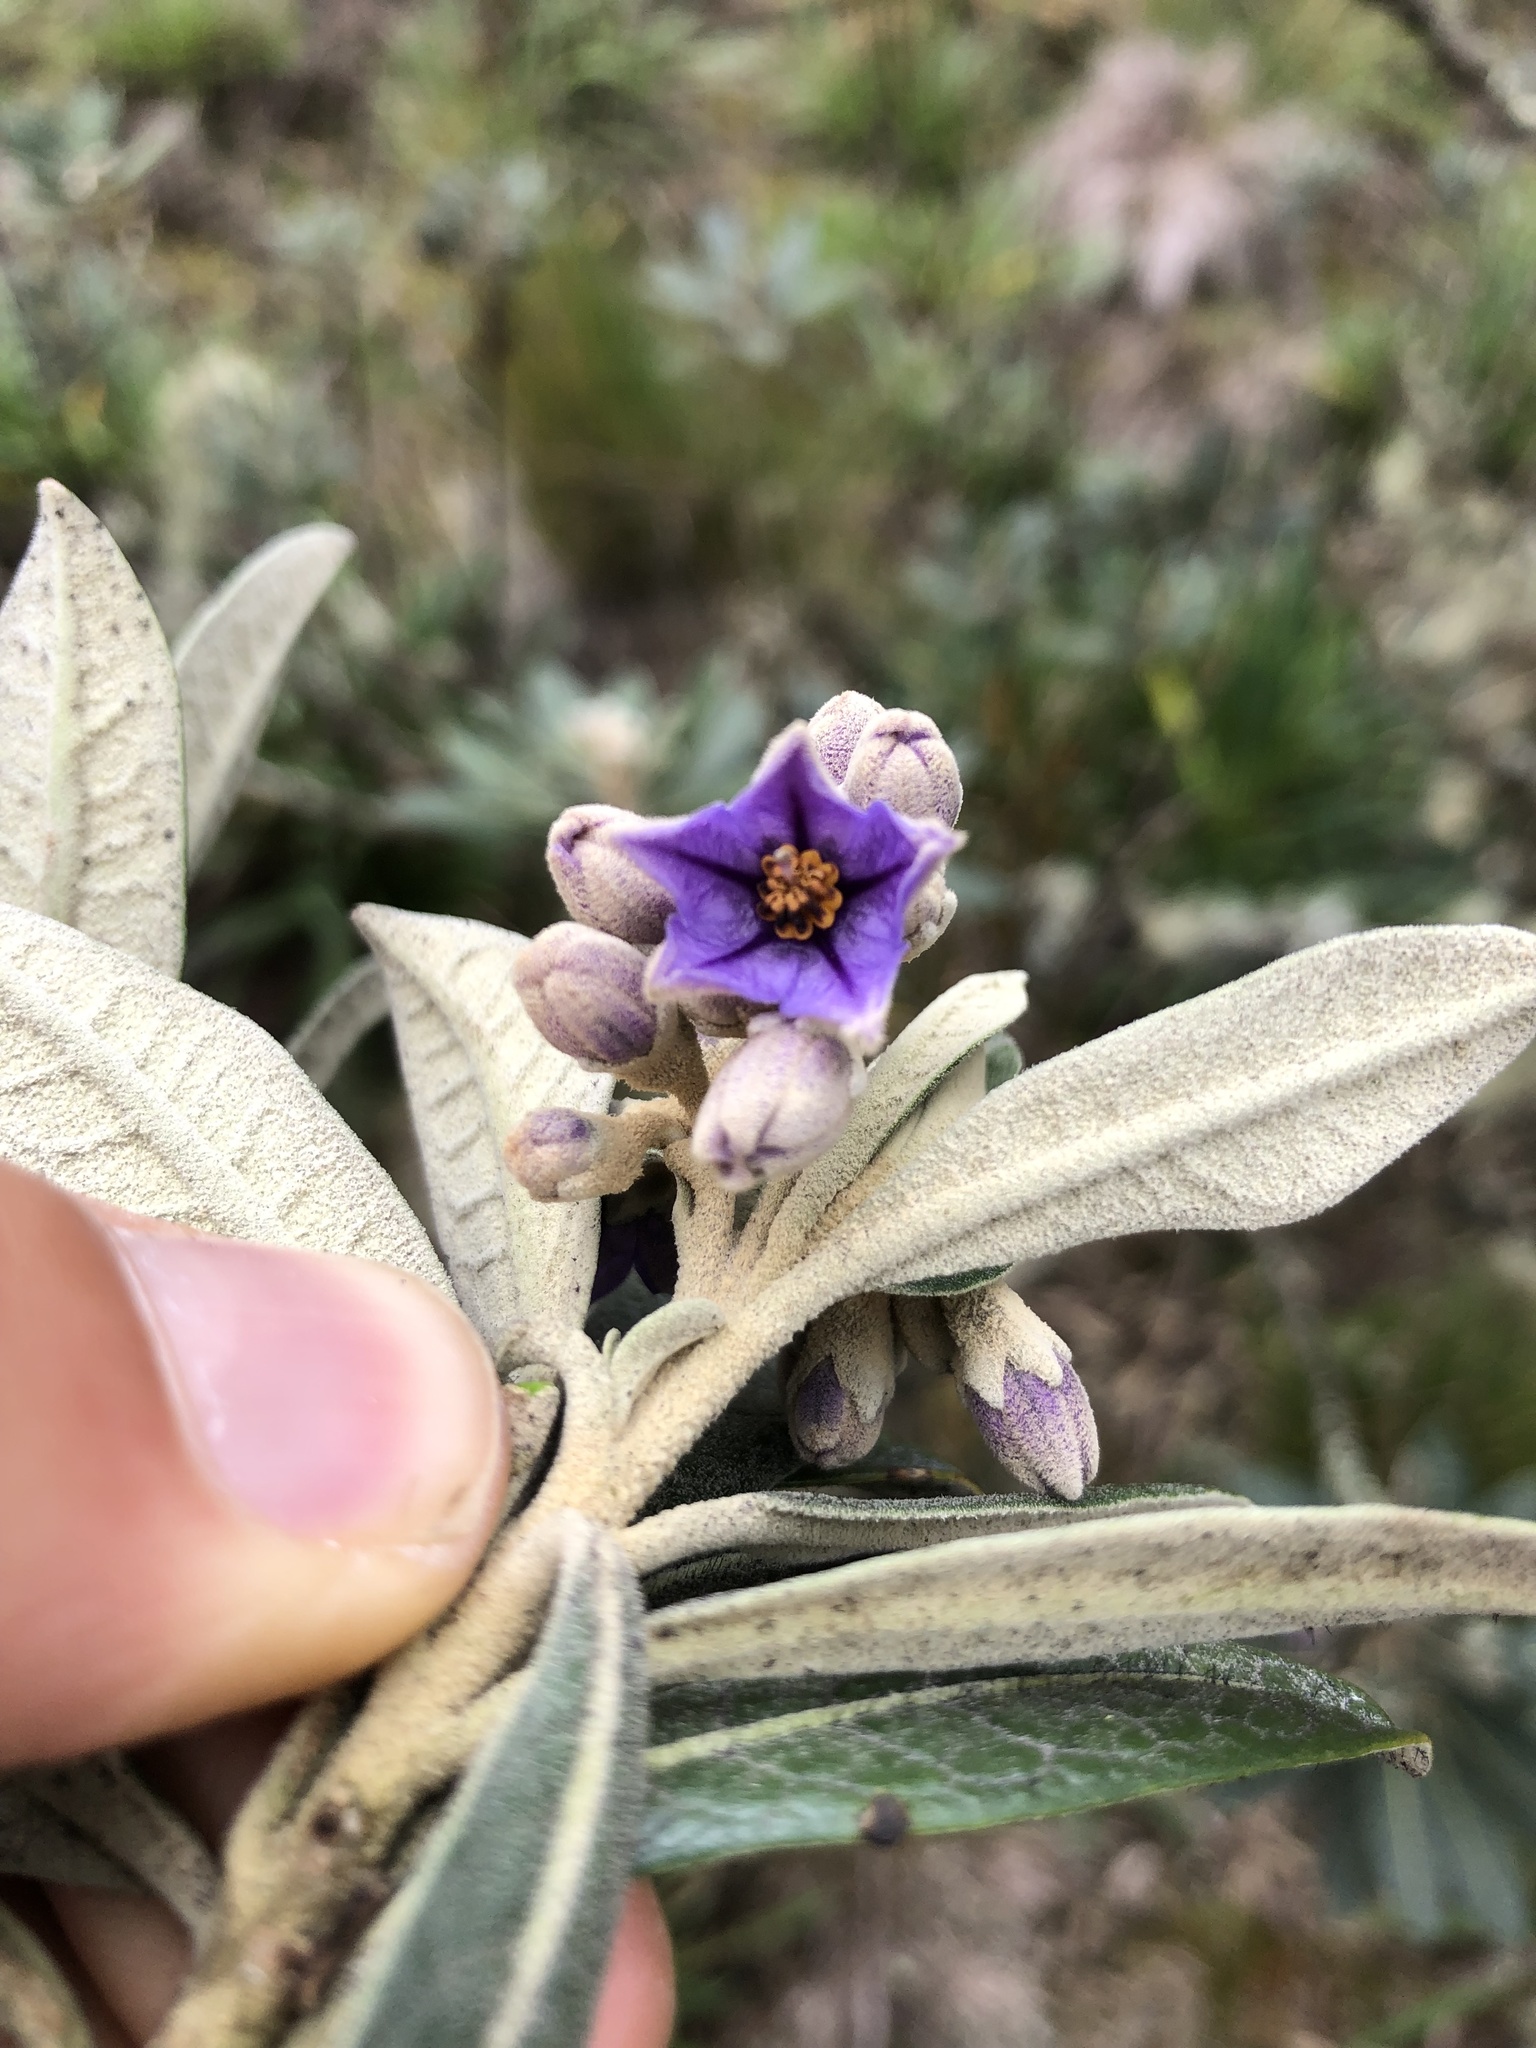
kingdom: Plantae
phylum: Tracheophyta
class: Magnoliopsida
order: Solanales
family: Solanaceae
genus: Solanum
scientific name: Solanum stenophyllum
